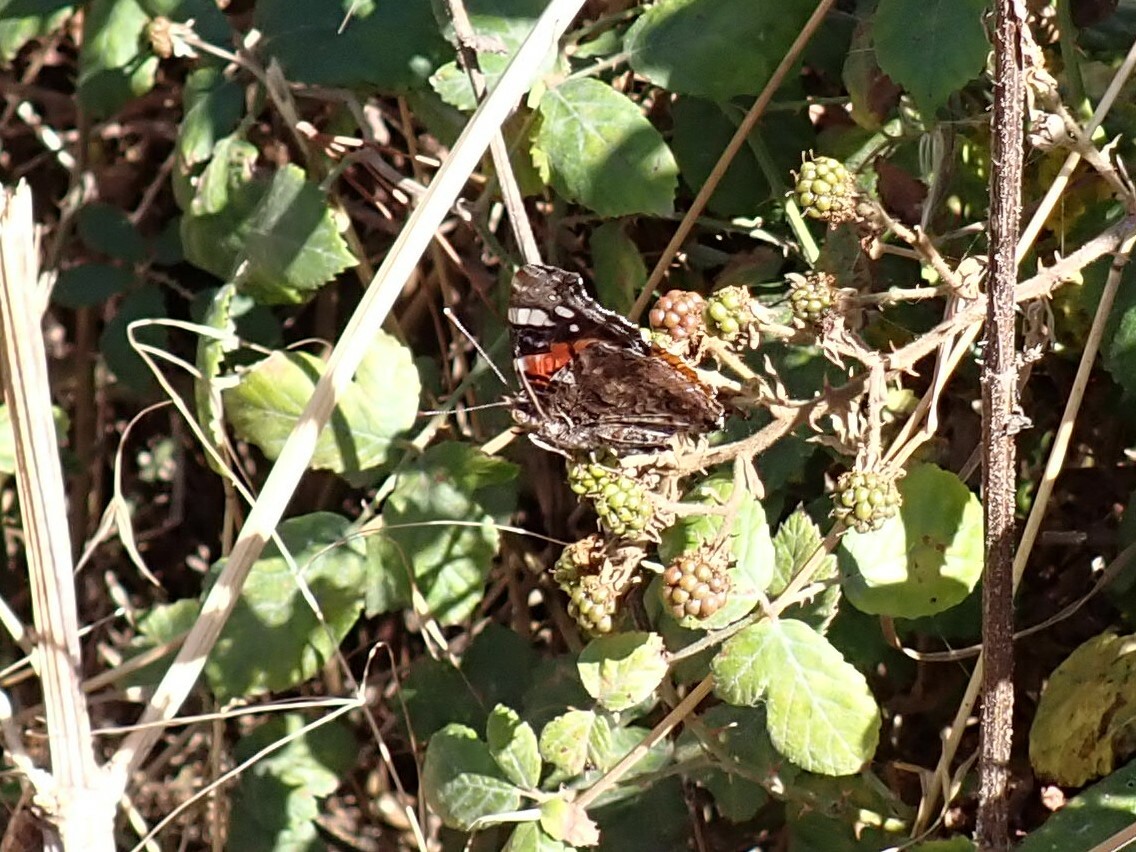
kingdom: Animalia
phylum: Arthropoda
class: Insecta
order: Lepidoptera
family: Nymphalidae
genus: Vanessa
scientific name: Vanessa atalanta
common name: Red admiral
